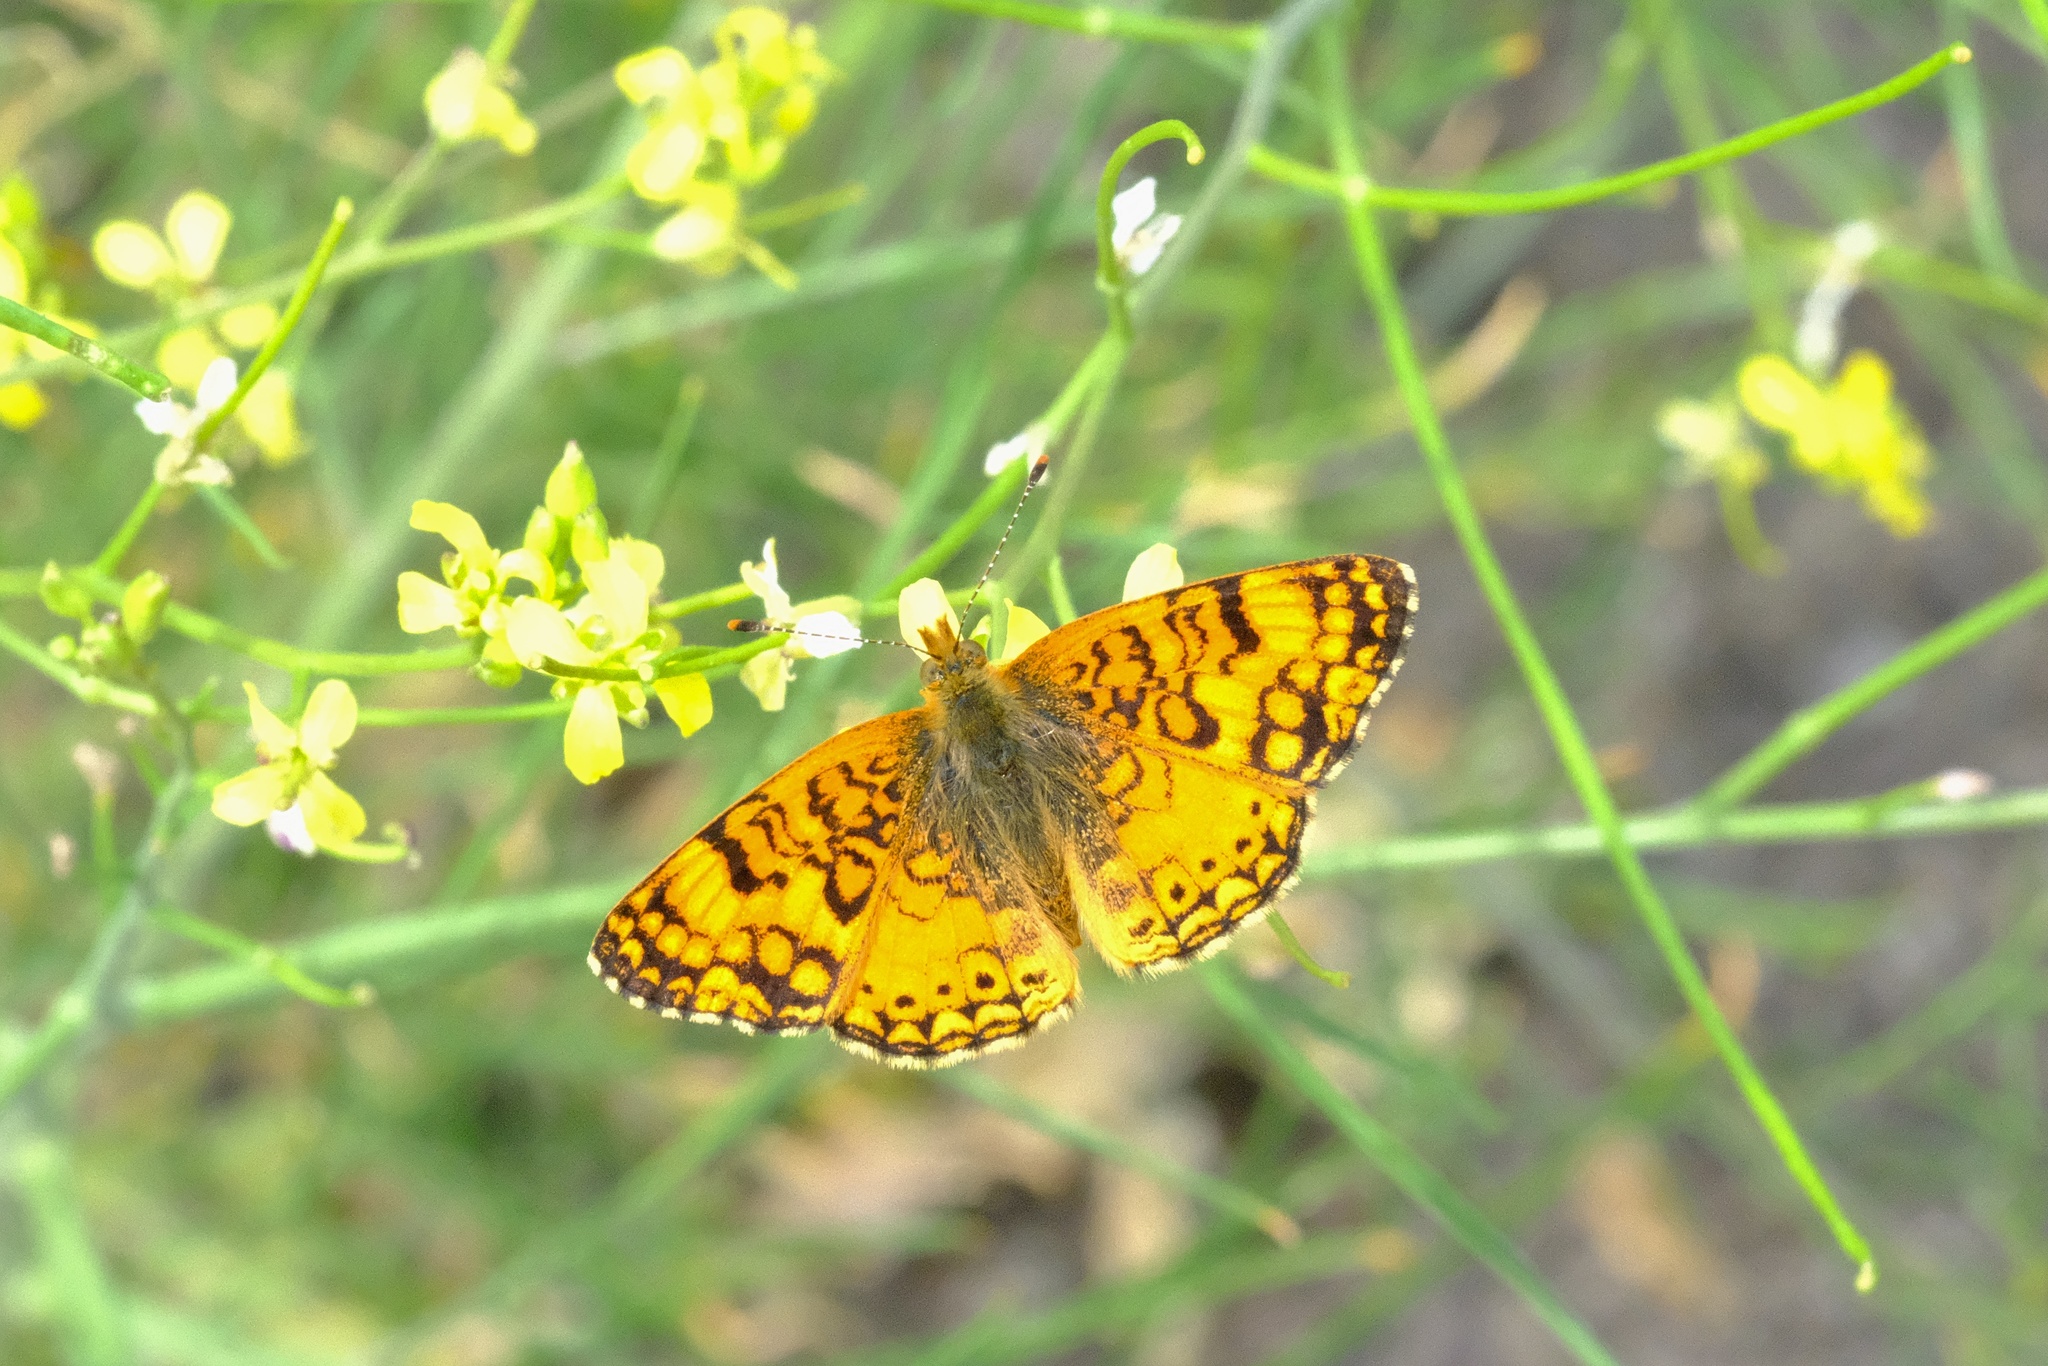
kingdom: Animalia
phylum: Arthropoda
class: Insecta
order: Lepidoptera
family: Nymphalidae
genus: Eresia
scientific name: Eresia aveyrona
